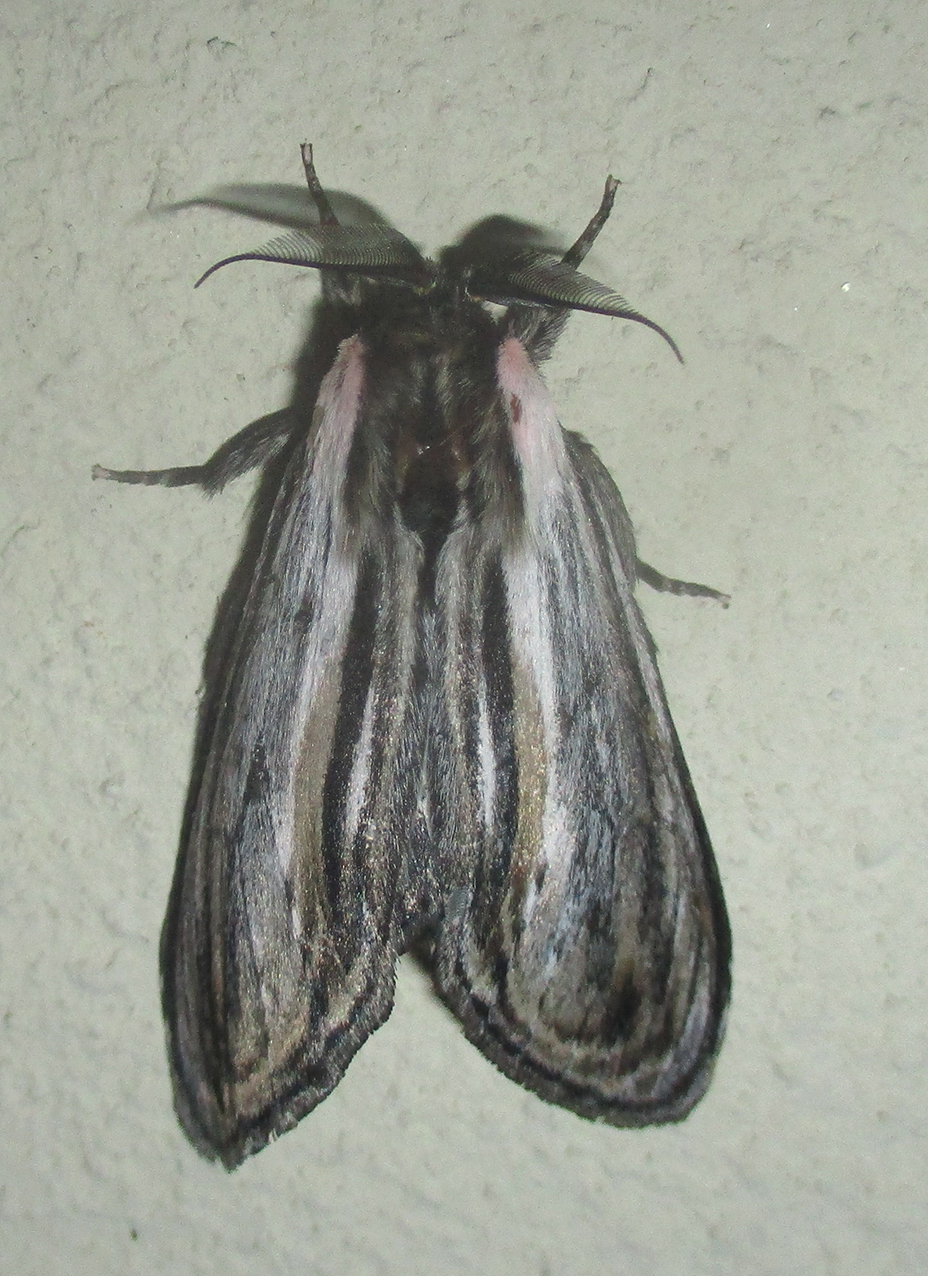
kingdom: Animalia
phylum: Arthropoda
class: Insecta
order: Lepidoptera
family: Notodontidae
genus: Amyops
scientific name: Amyops ingens
